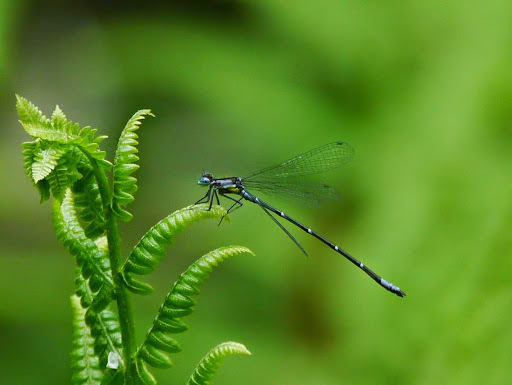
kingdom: Animalia
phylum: Arthropoda
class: Insecta
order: Odonata
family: Coenagrionidae
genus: Chromagrion
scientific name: Chromagrion conditum
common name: Aurora damsel
